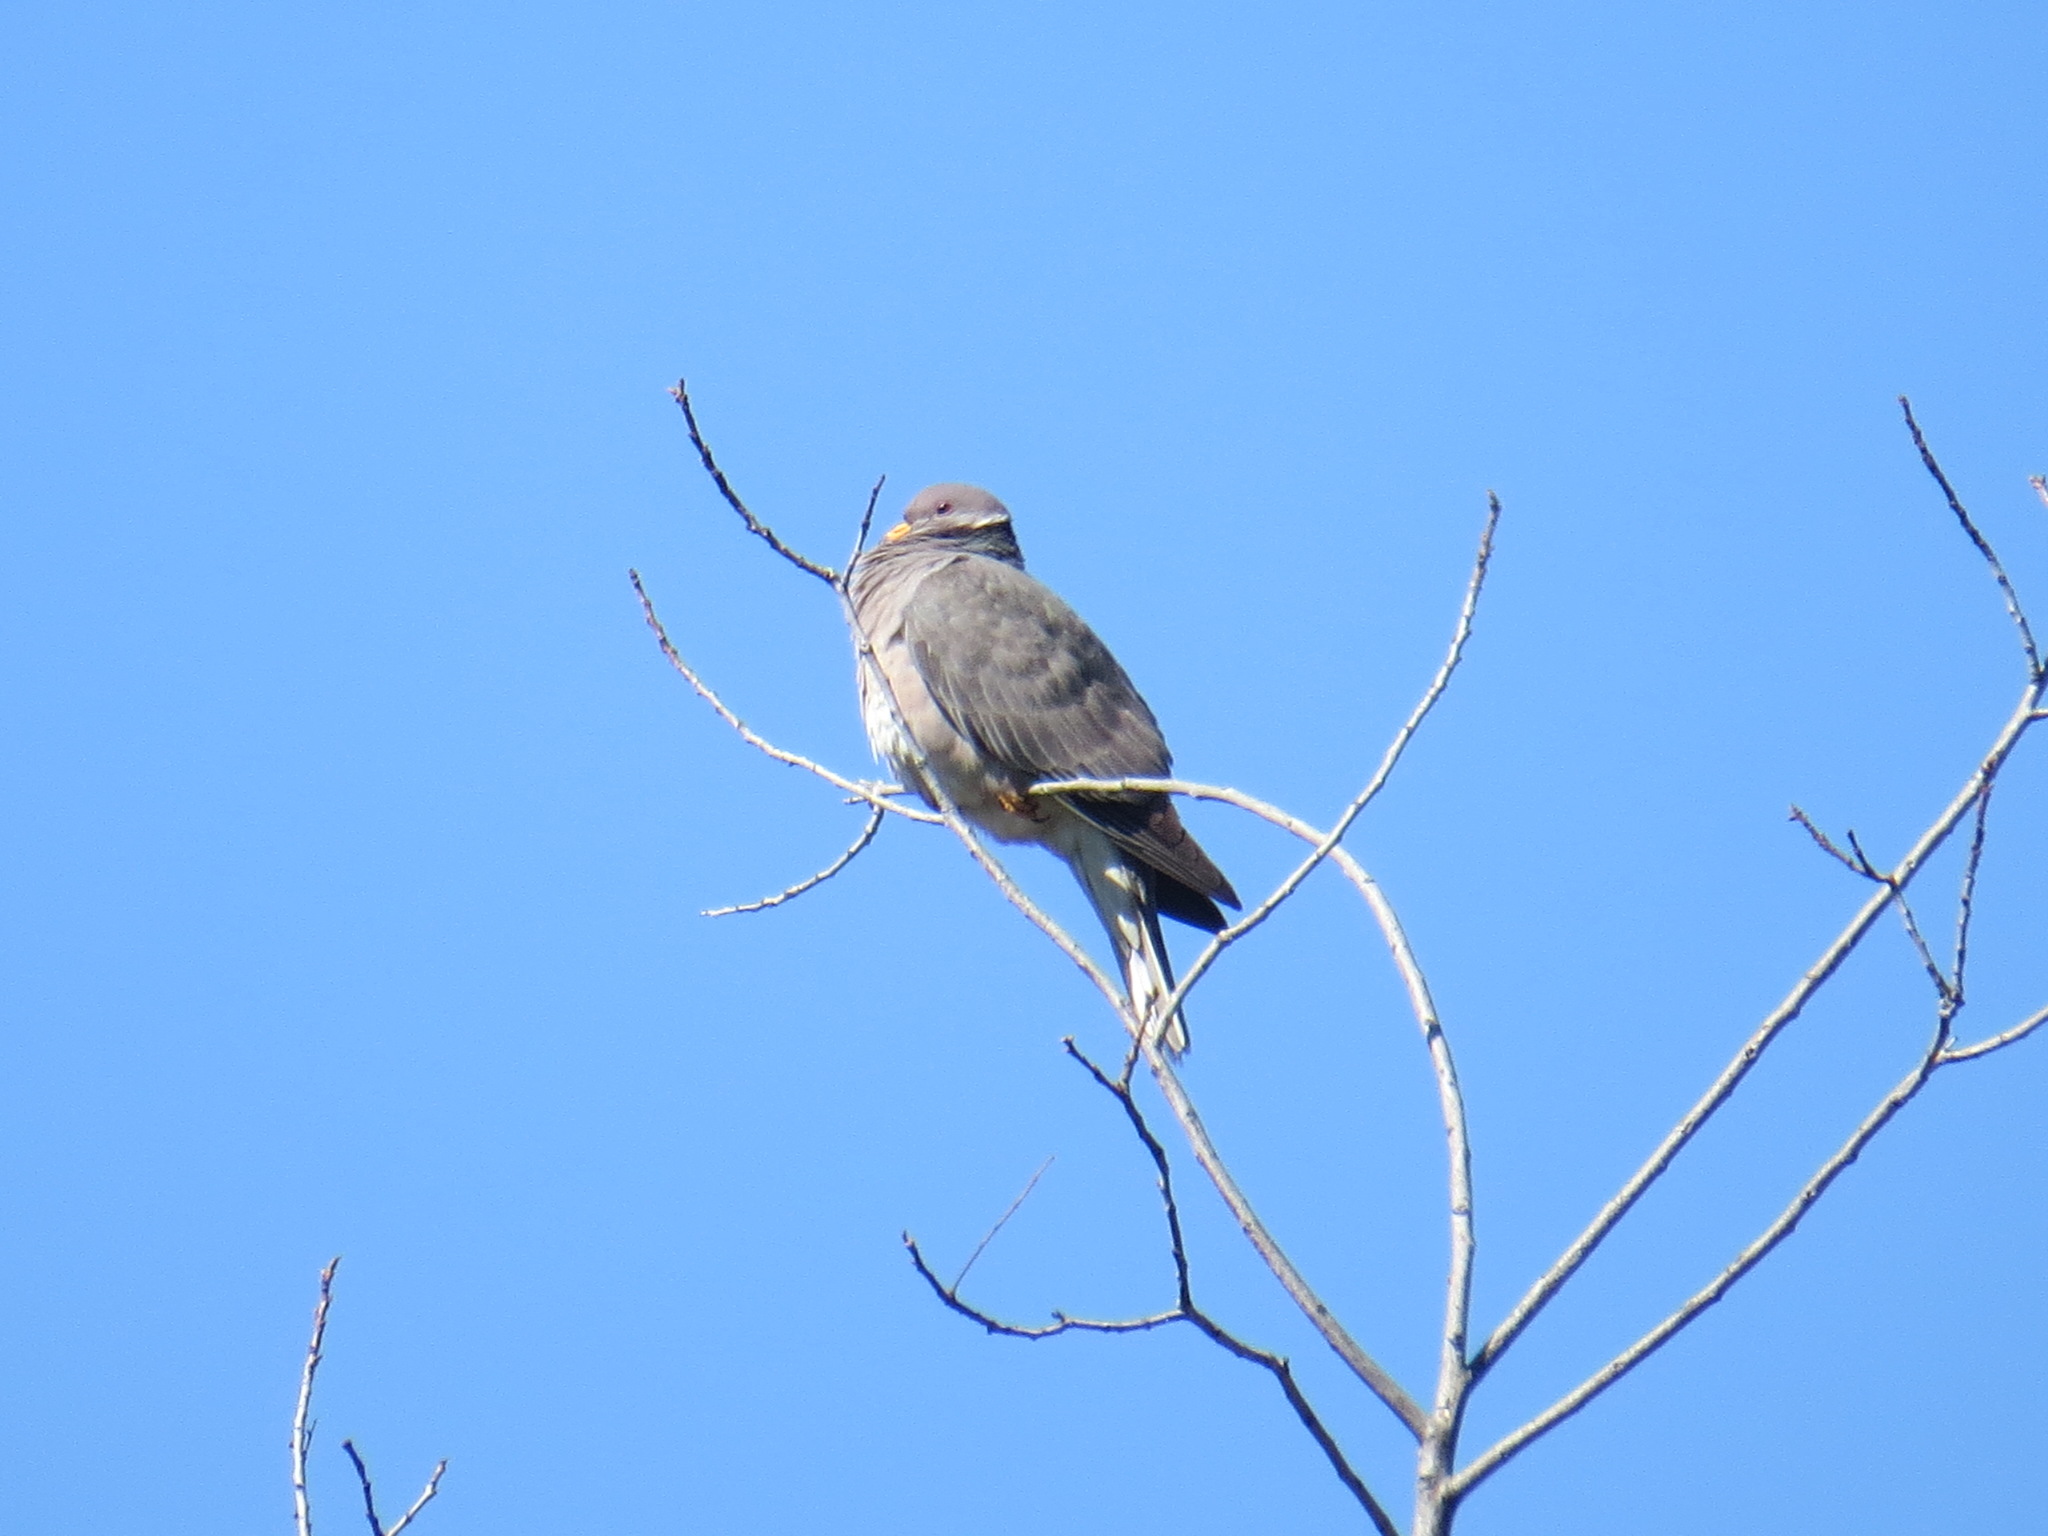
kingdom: Animalia
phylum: Chordata
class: Aves
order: Columbiformes
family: Columbidae
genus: Patagioenas
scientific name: Patagioenas fasciata
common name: Band-tailed pigeon
